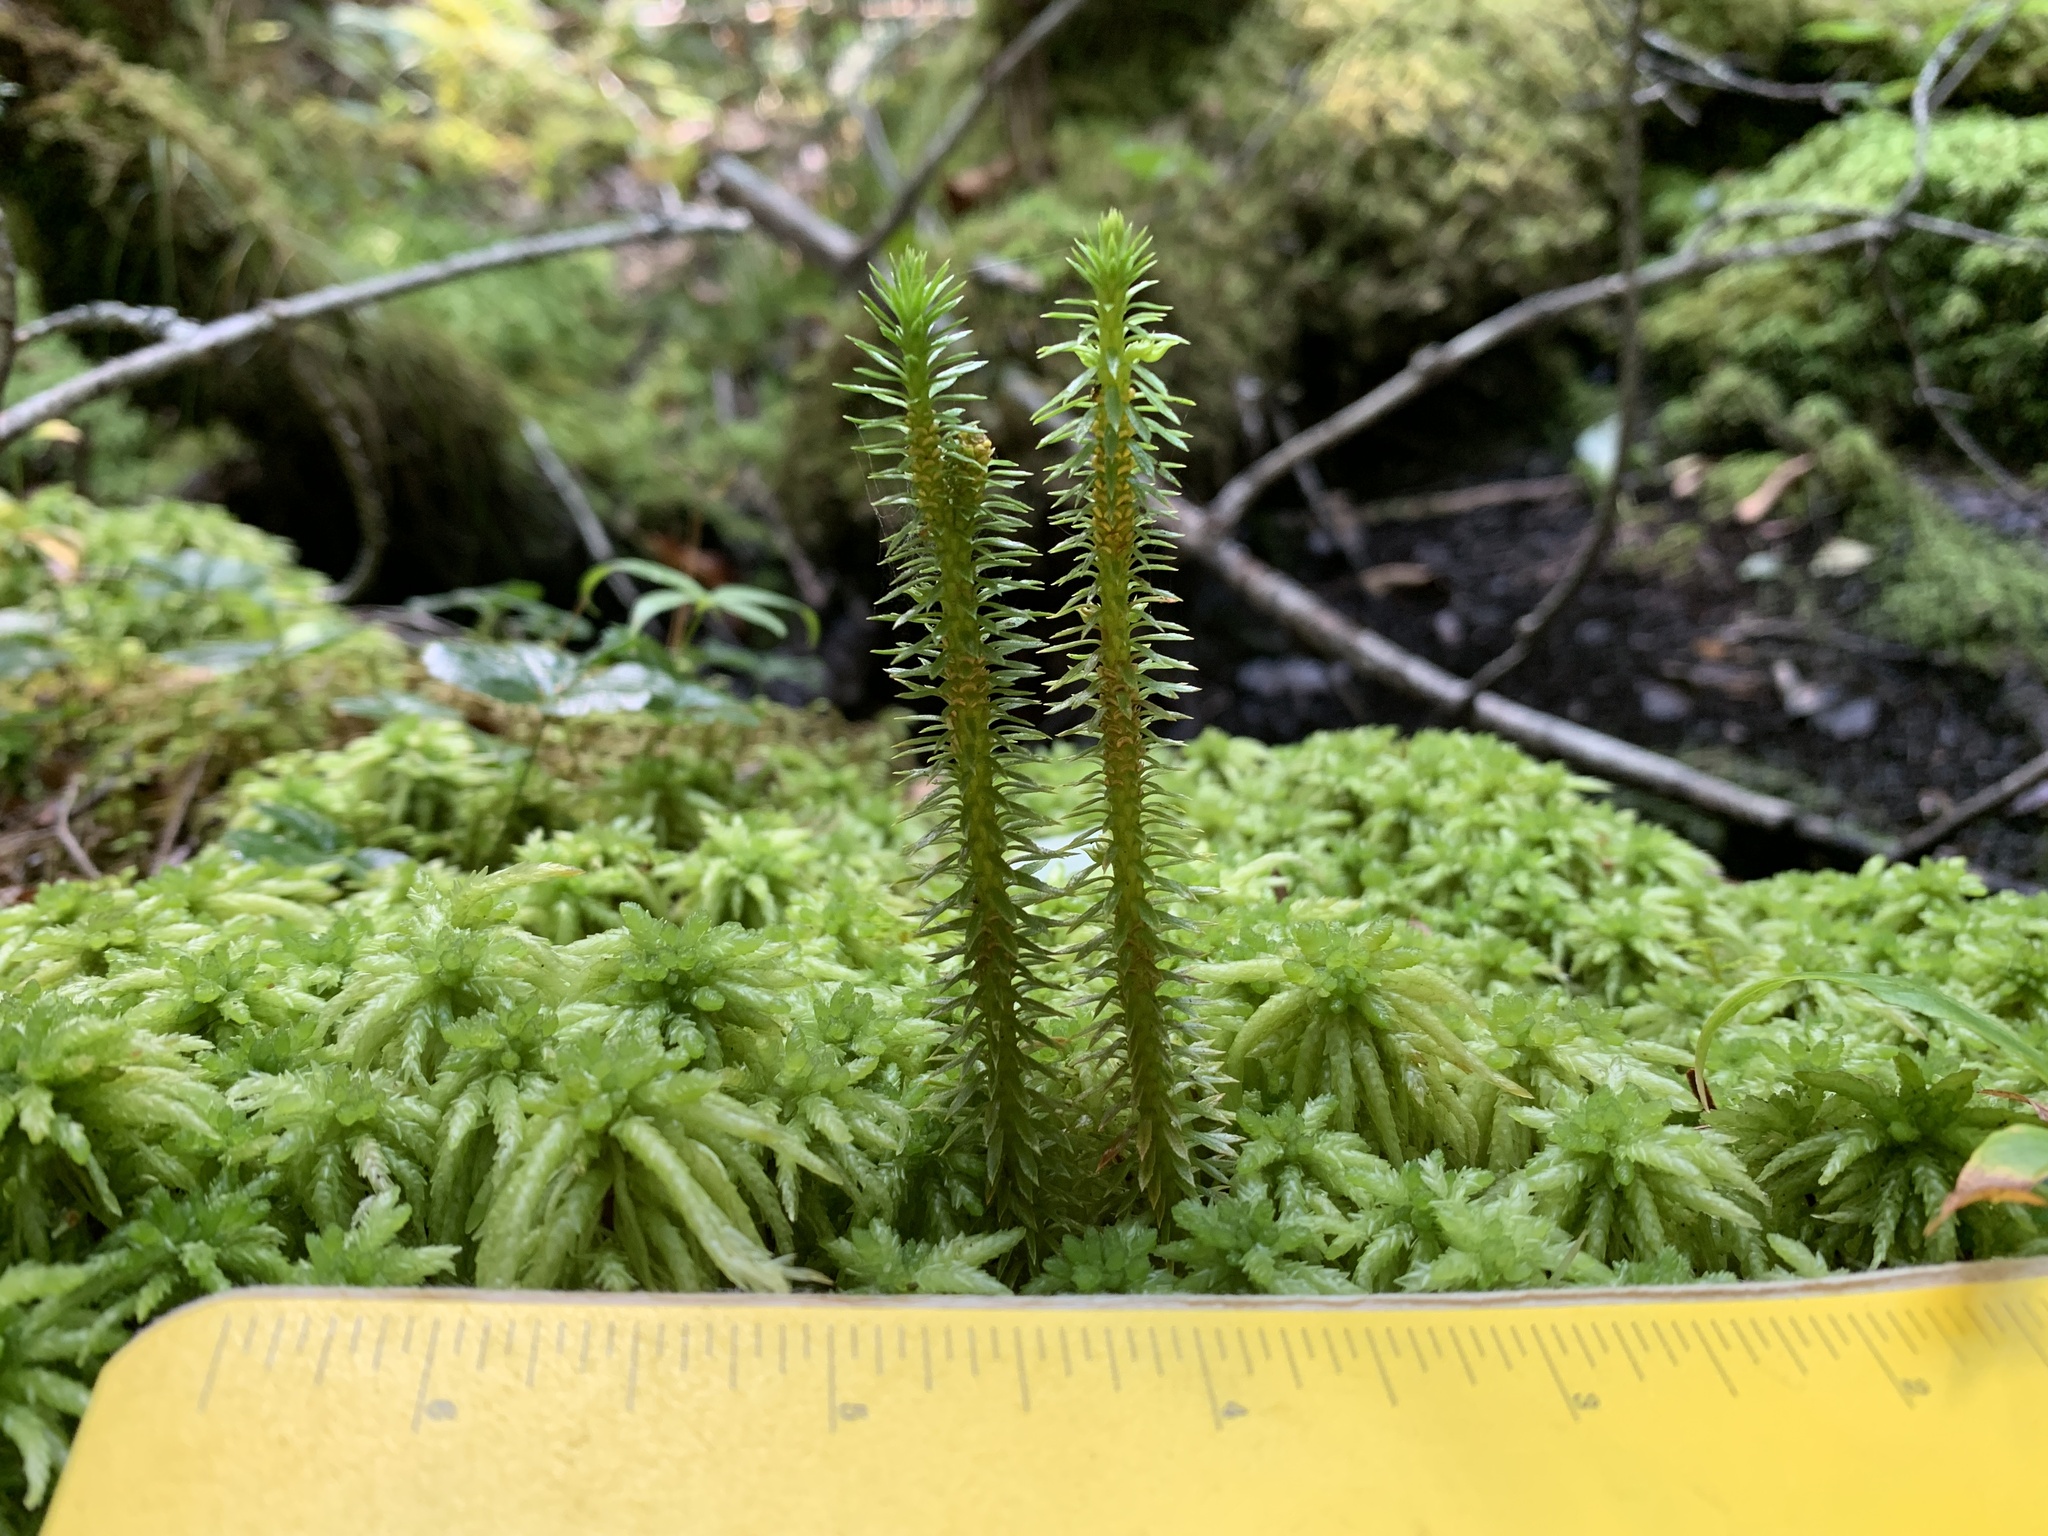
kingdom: Plantae
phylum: Tracheophyta
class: Lycopodiopsida
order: Lycopodiales
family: Lycopodiaceae
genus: Huperzia
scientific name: Huperzia lucidula
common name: Shining clubmoss
